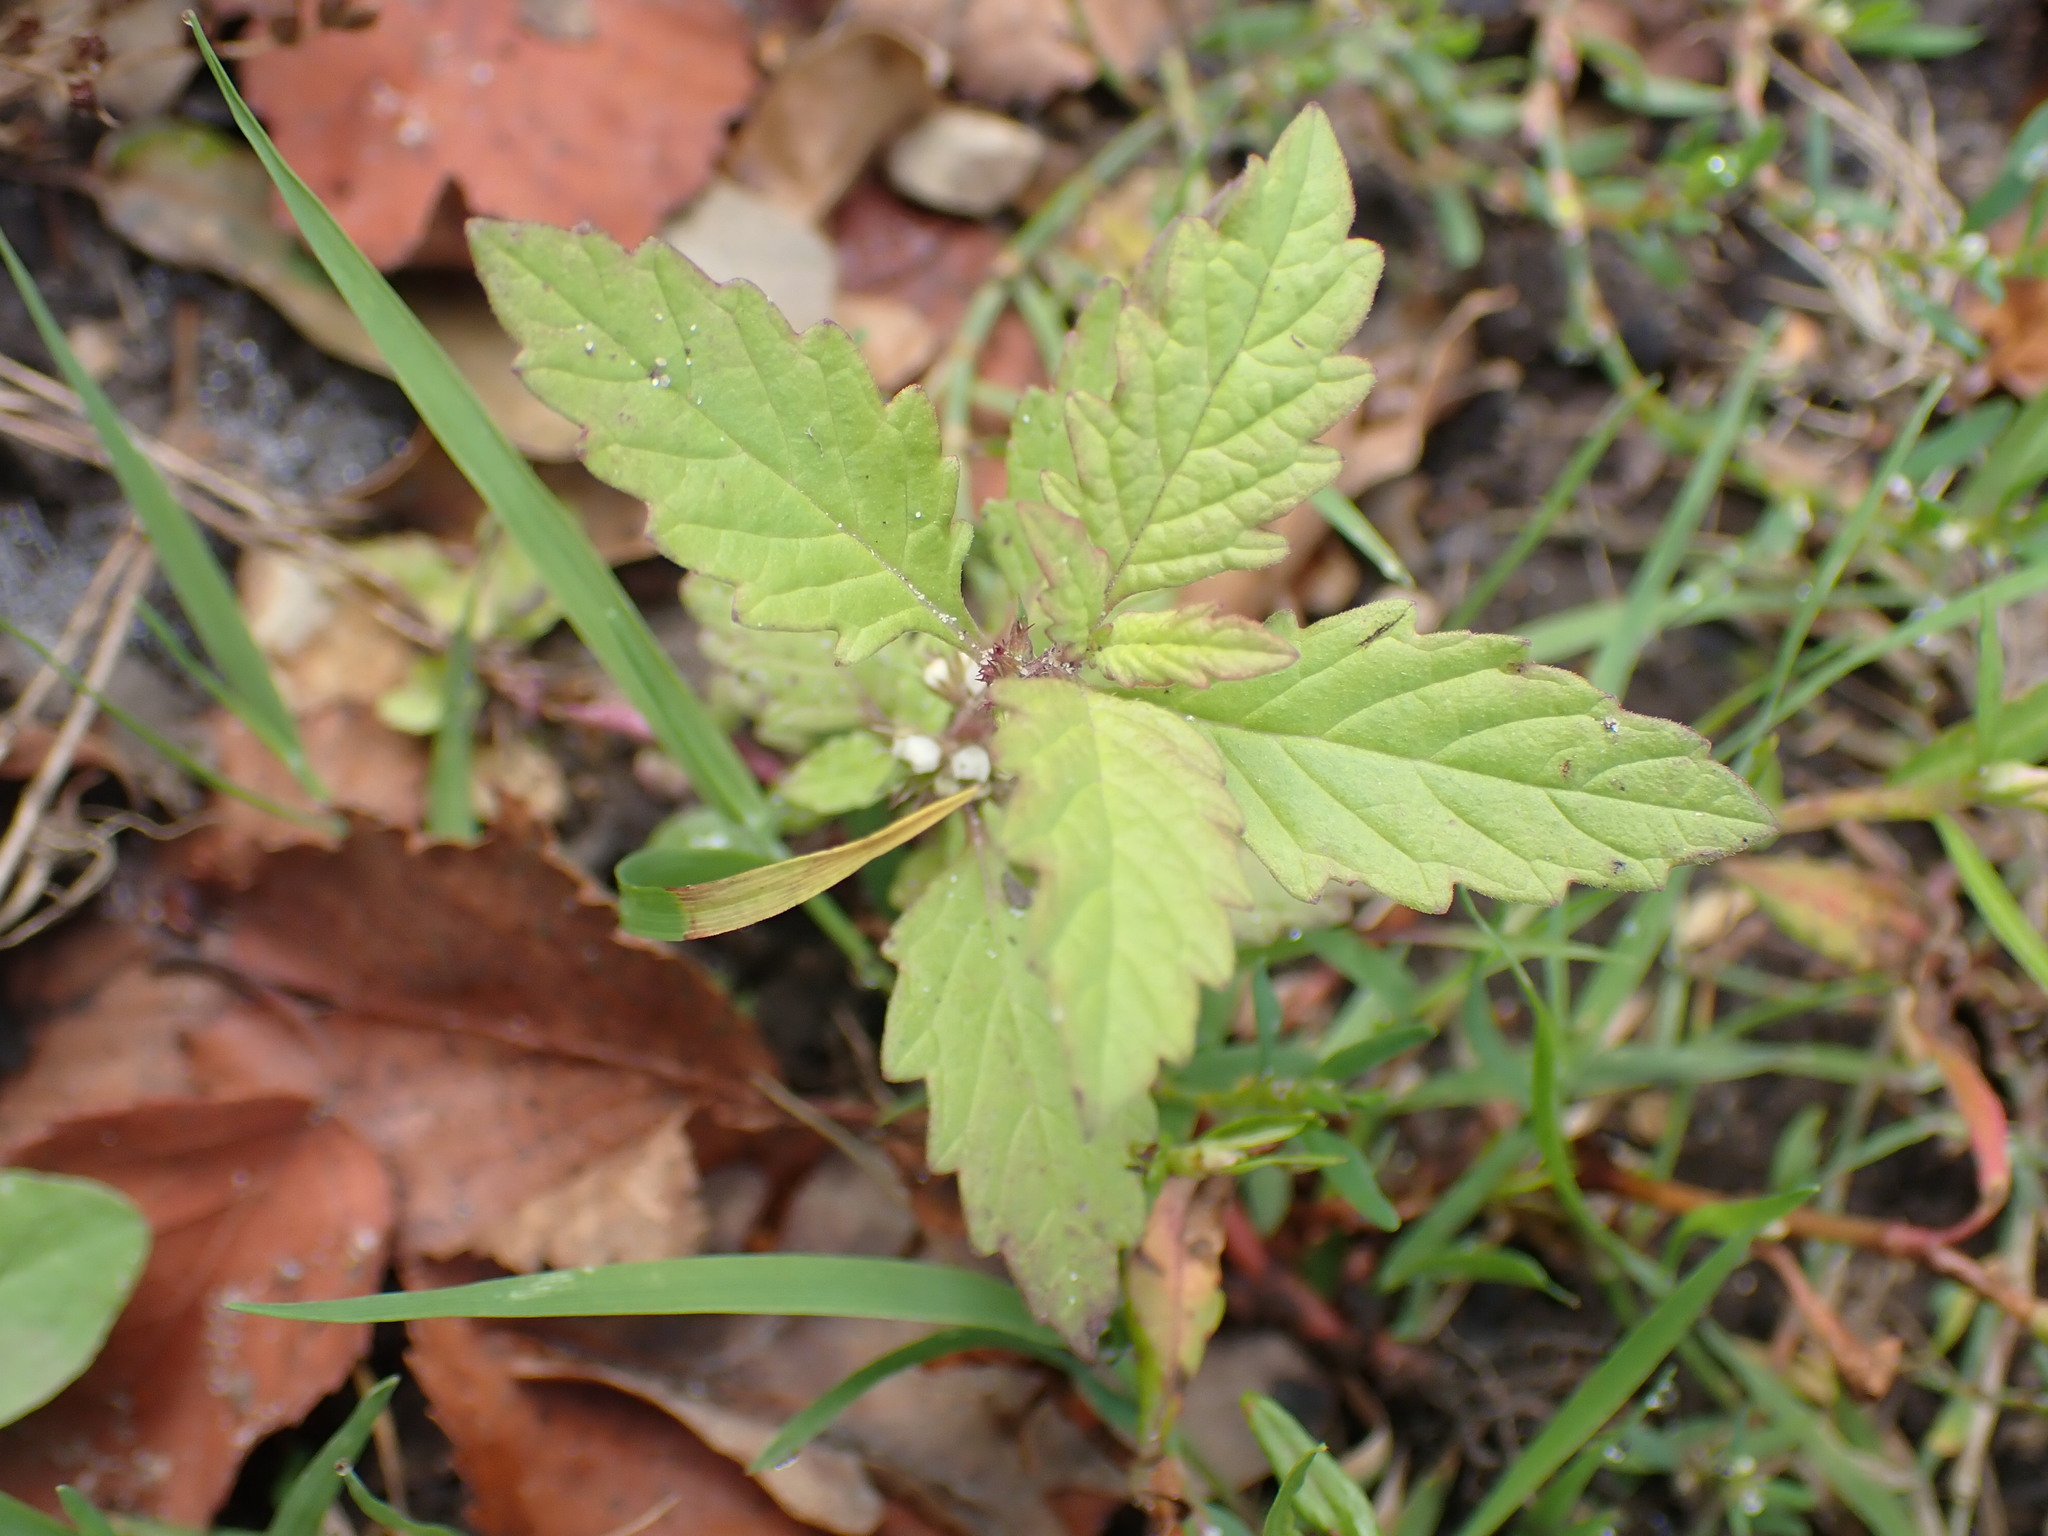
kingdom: Plantae
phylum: Tracheophyta
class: Magnoliopsida
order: Lamiales
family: Lamiaceae
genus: Lycopus
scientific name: Lycopus europaeus
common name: European bugleweed
